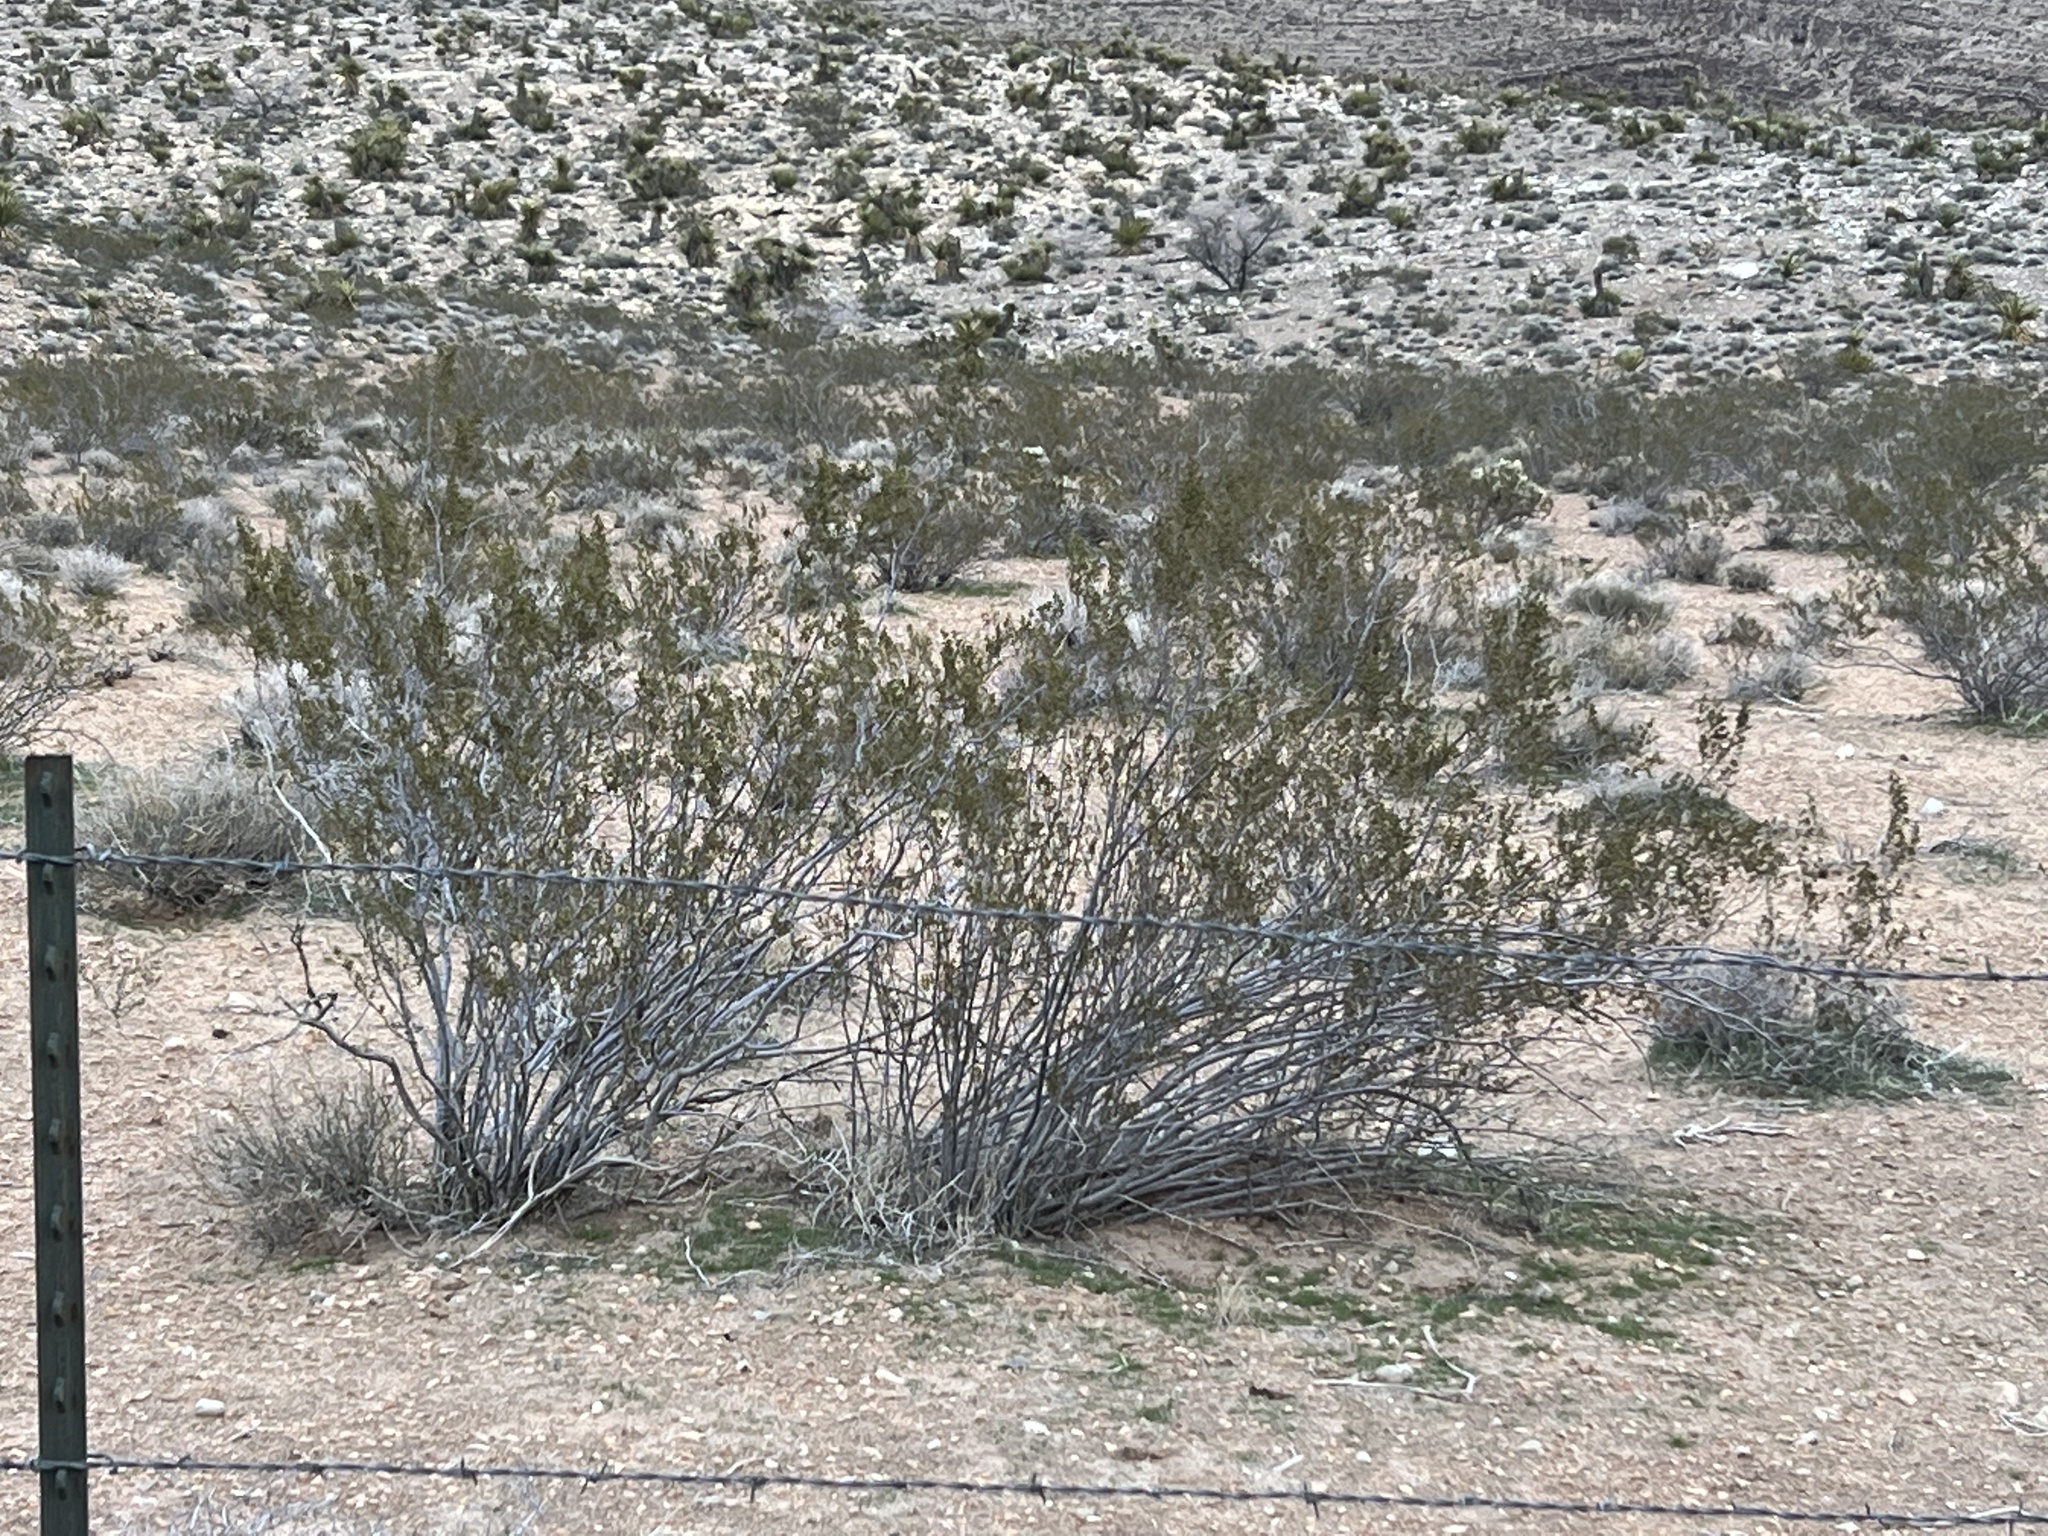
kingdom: Plantae
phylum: Tracheophyta
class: Magnoliopsida
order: Zygophyllales
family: Zygophyllaceae
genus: Larrea
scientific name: Larrea tridentata
